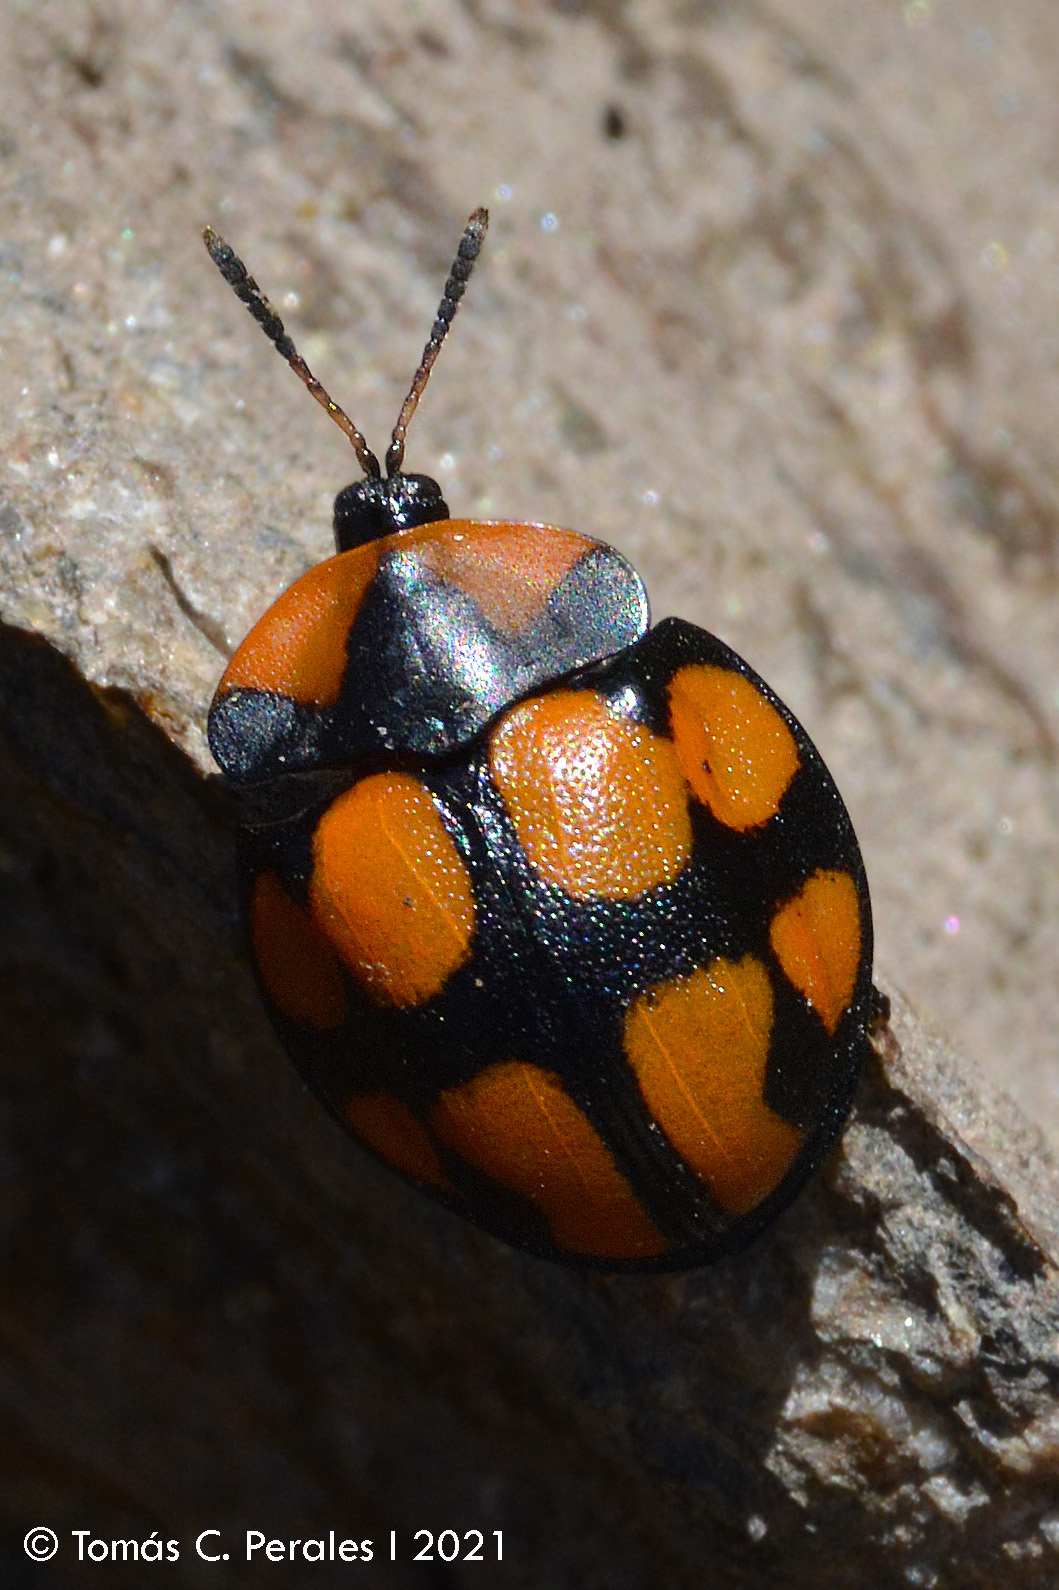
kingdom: Animalia
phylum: Arthropoda
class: Insecta
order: Coleoptera
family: Chrysomelidae
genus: Botanochara
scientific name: Botanochara octoplagiata
